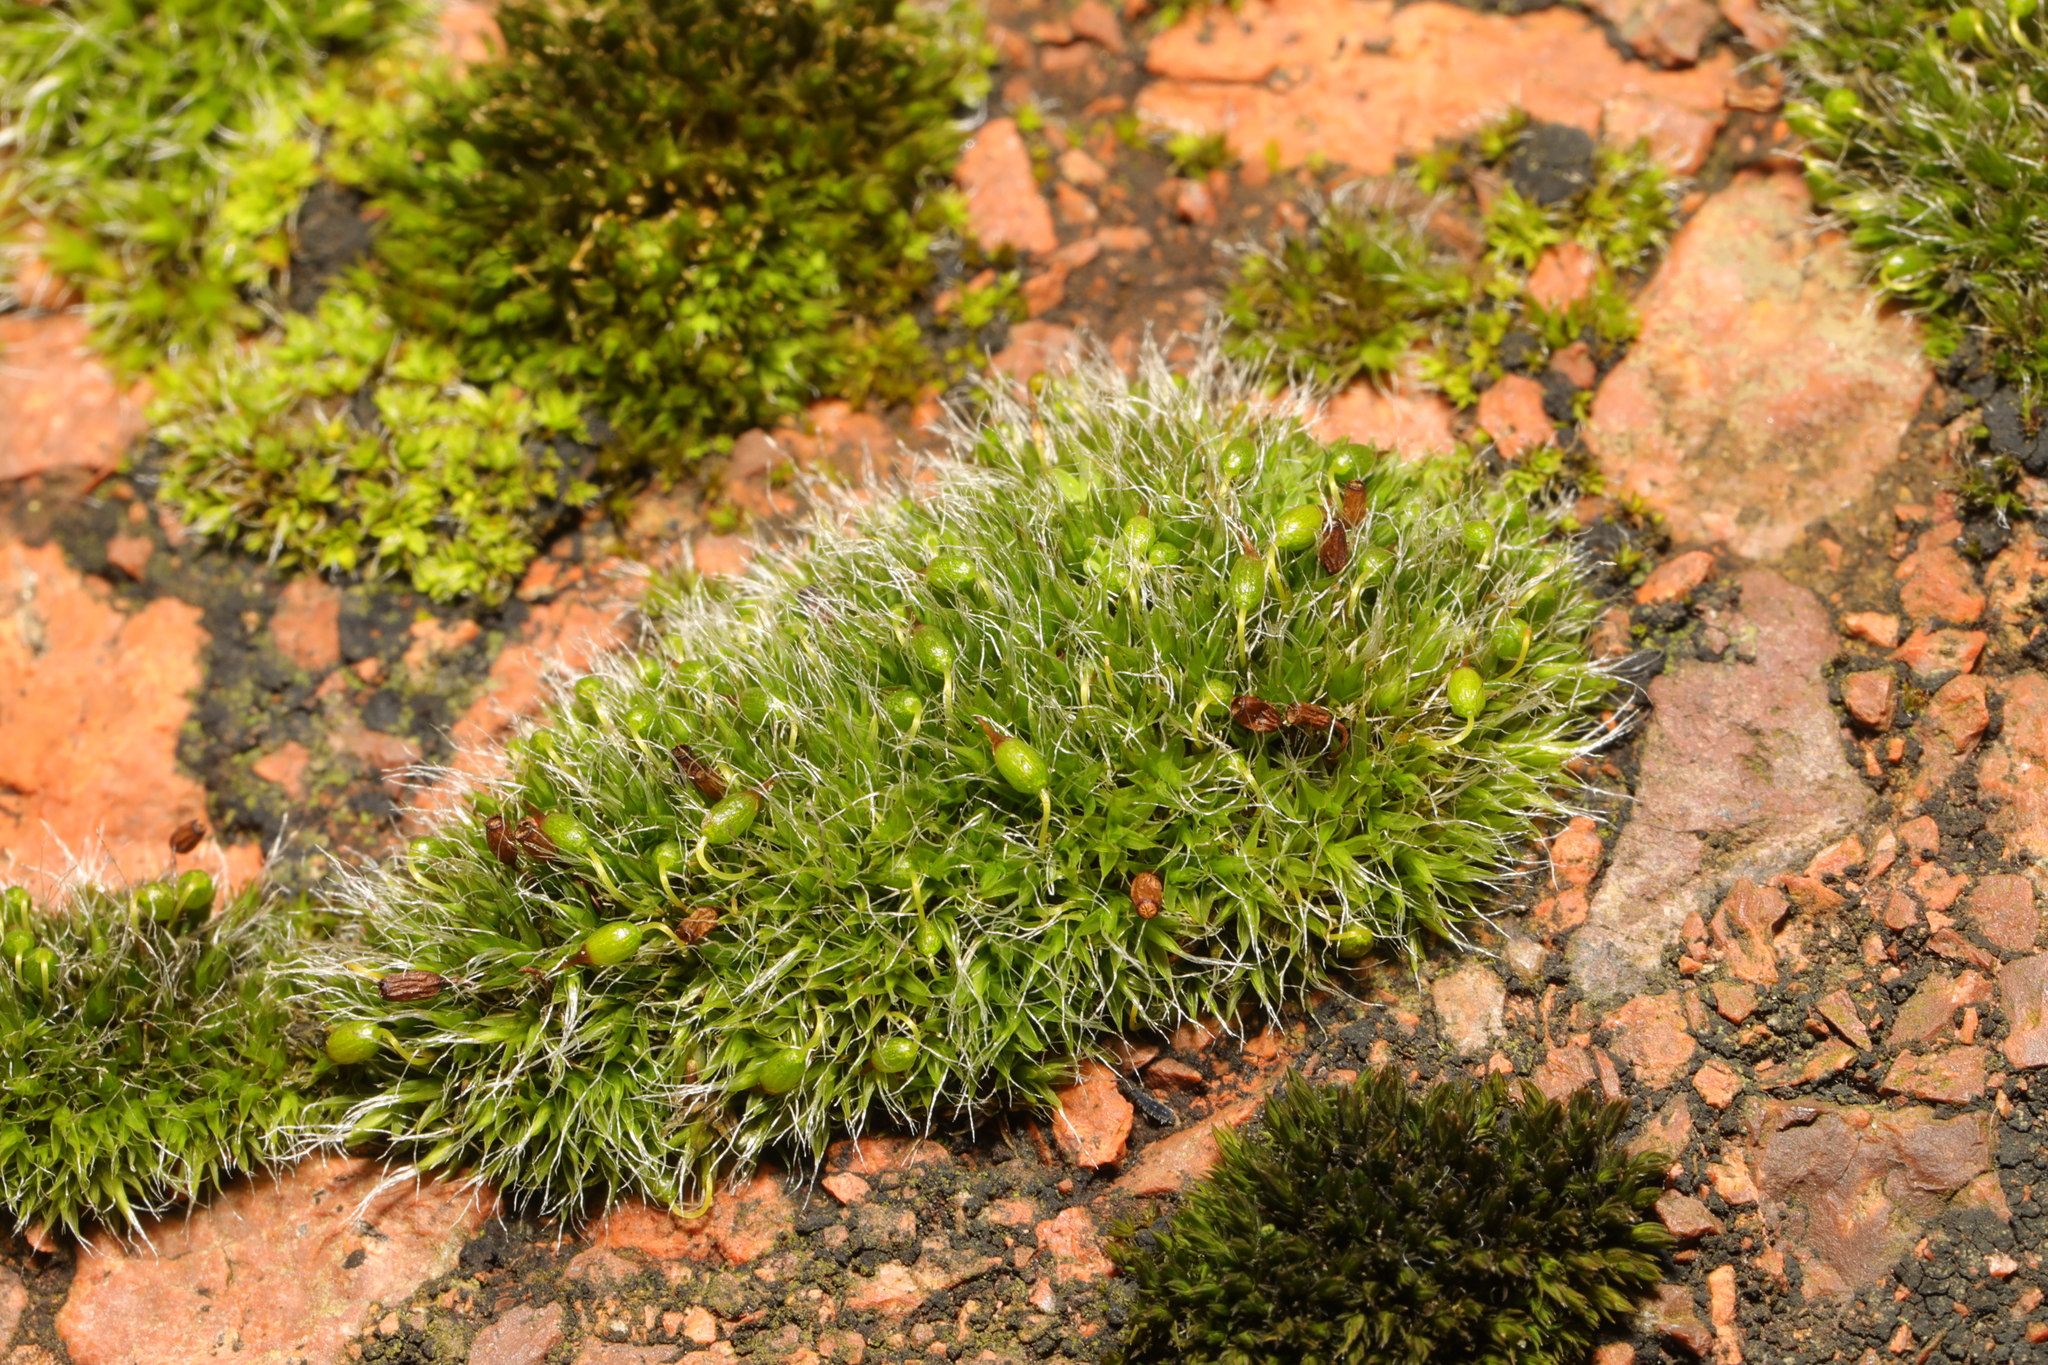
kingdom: Plantae
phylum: Bryophyta
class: Bryopsida
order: Grimmiales
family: Grimmiaceae
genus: Grimmia
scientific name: Grimmia pulvinata
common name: Grey-cushioned grimmia
